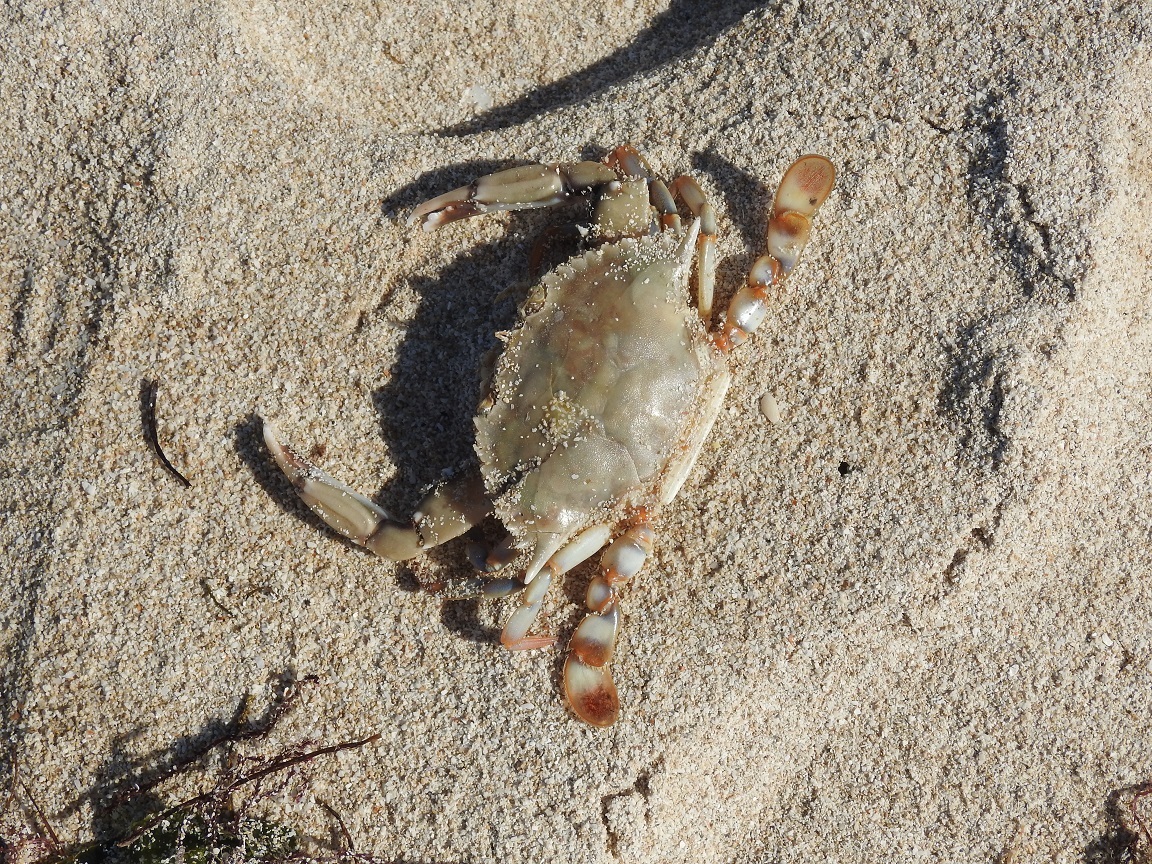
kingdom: Animalia
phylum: Arthropoda
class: Malacostraca
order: Decapoda
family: Portunidae
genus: Callinectes
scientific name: Callinectes ornatus
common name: Ornate crab
